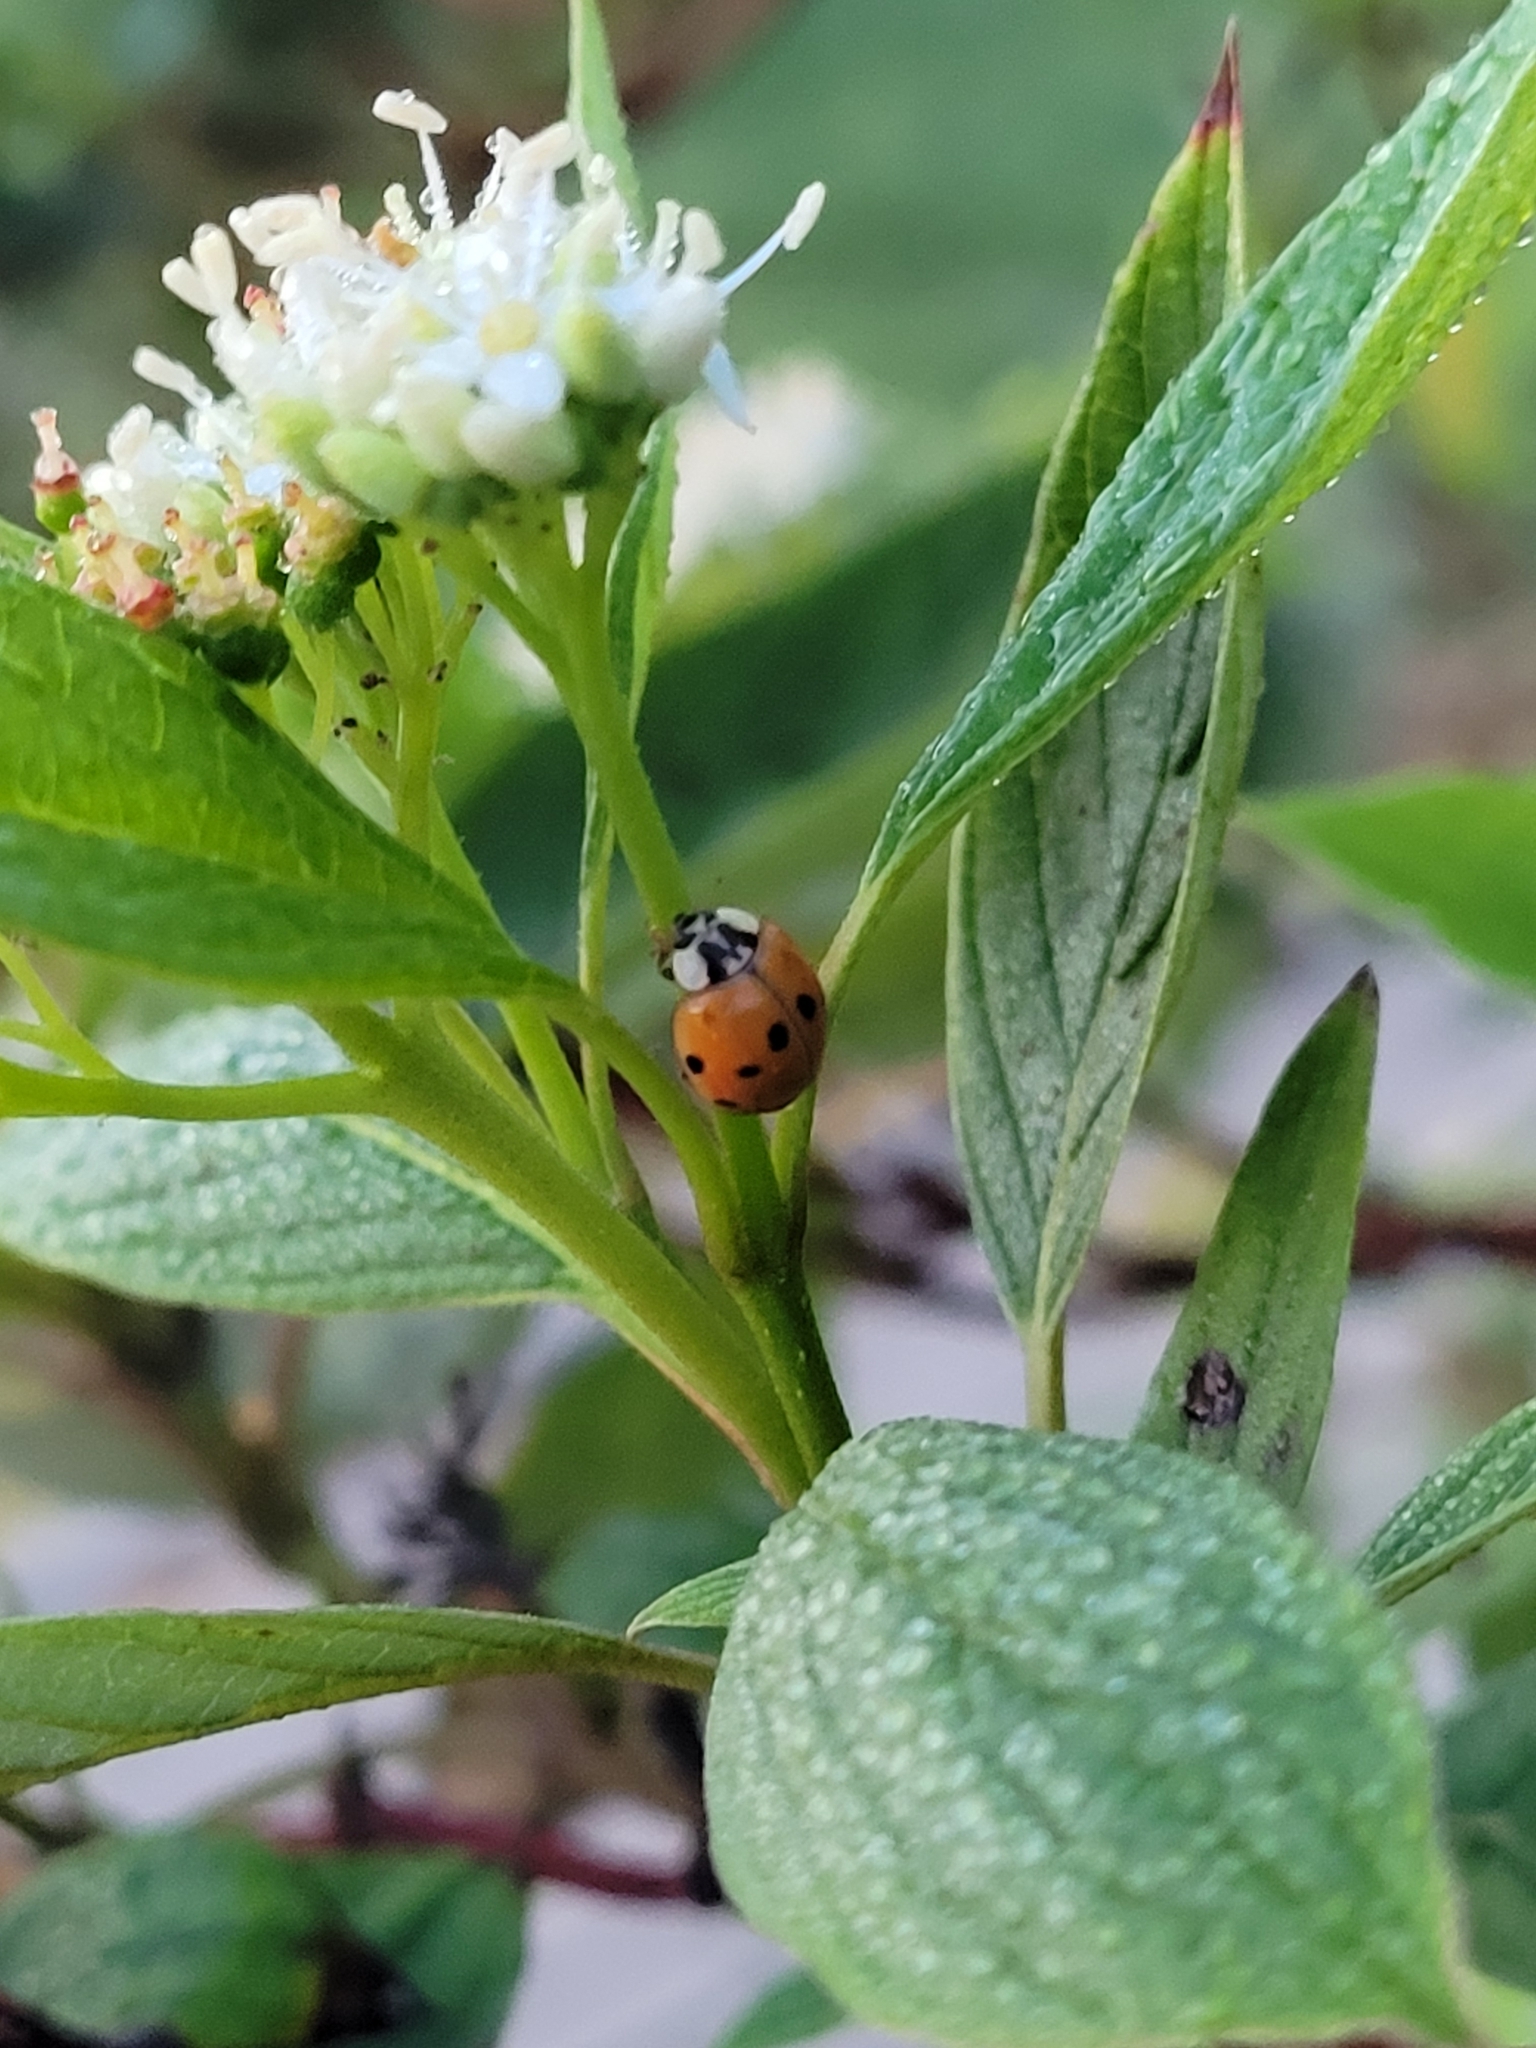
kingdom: Animalia
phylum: Arthropoda
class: Insecta
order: Coleoptera
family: Coccinellidae
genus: Harmonia
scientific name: Harmonia axyridis
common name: Harlequin ladybird
